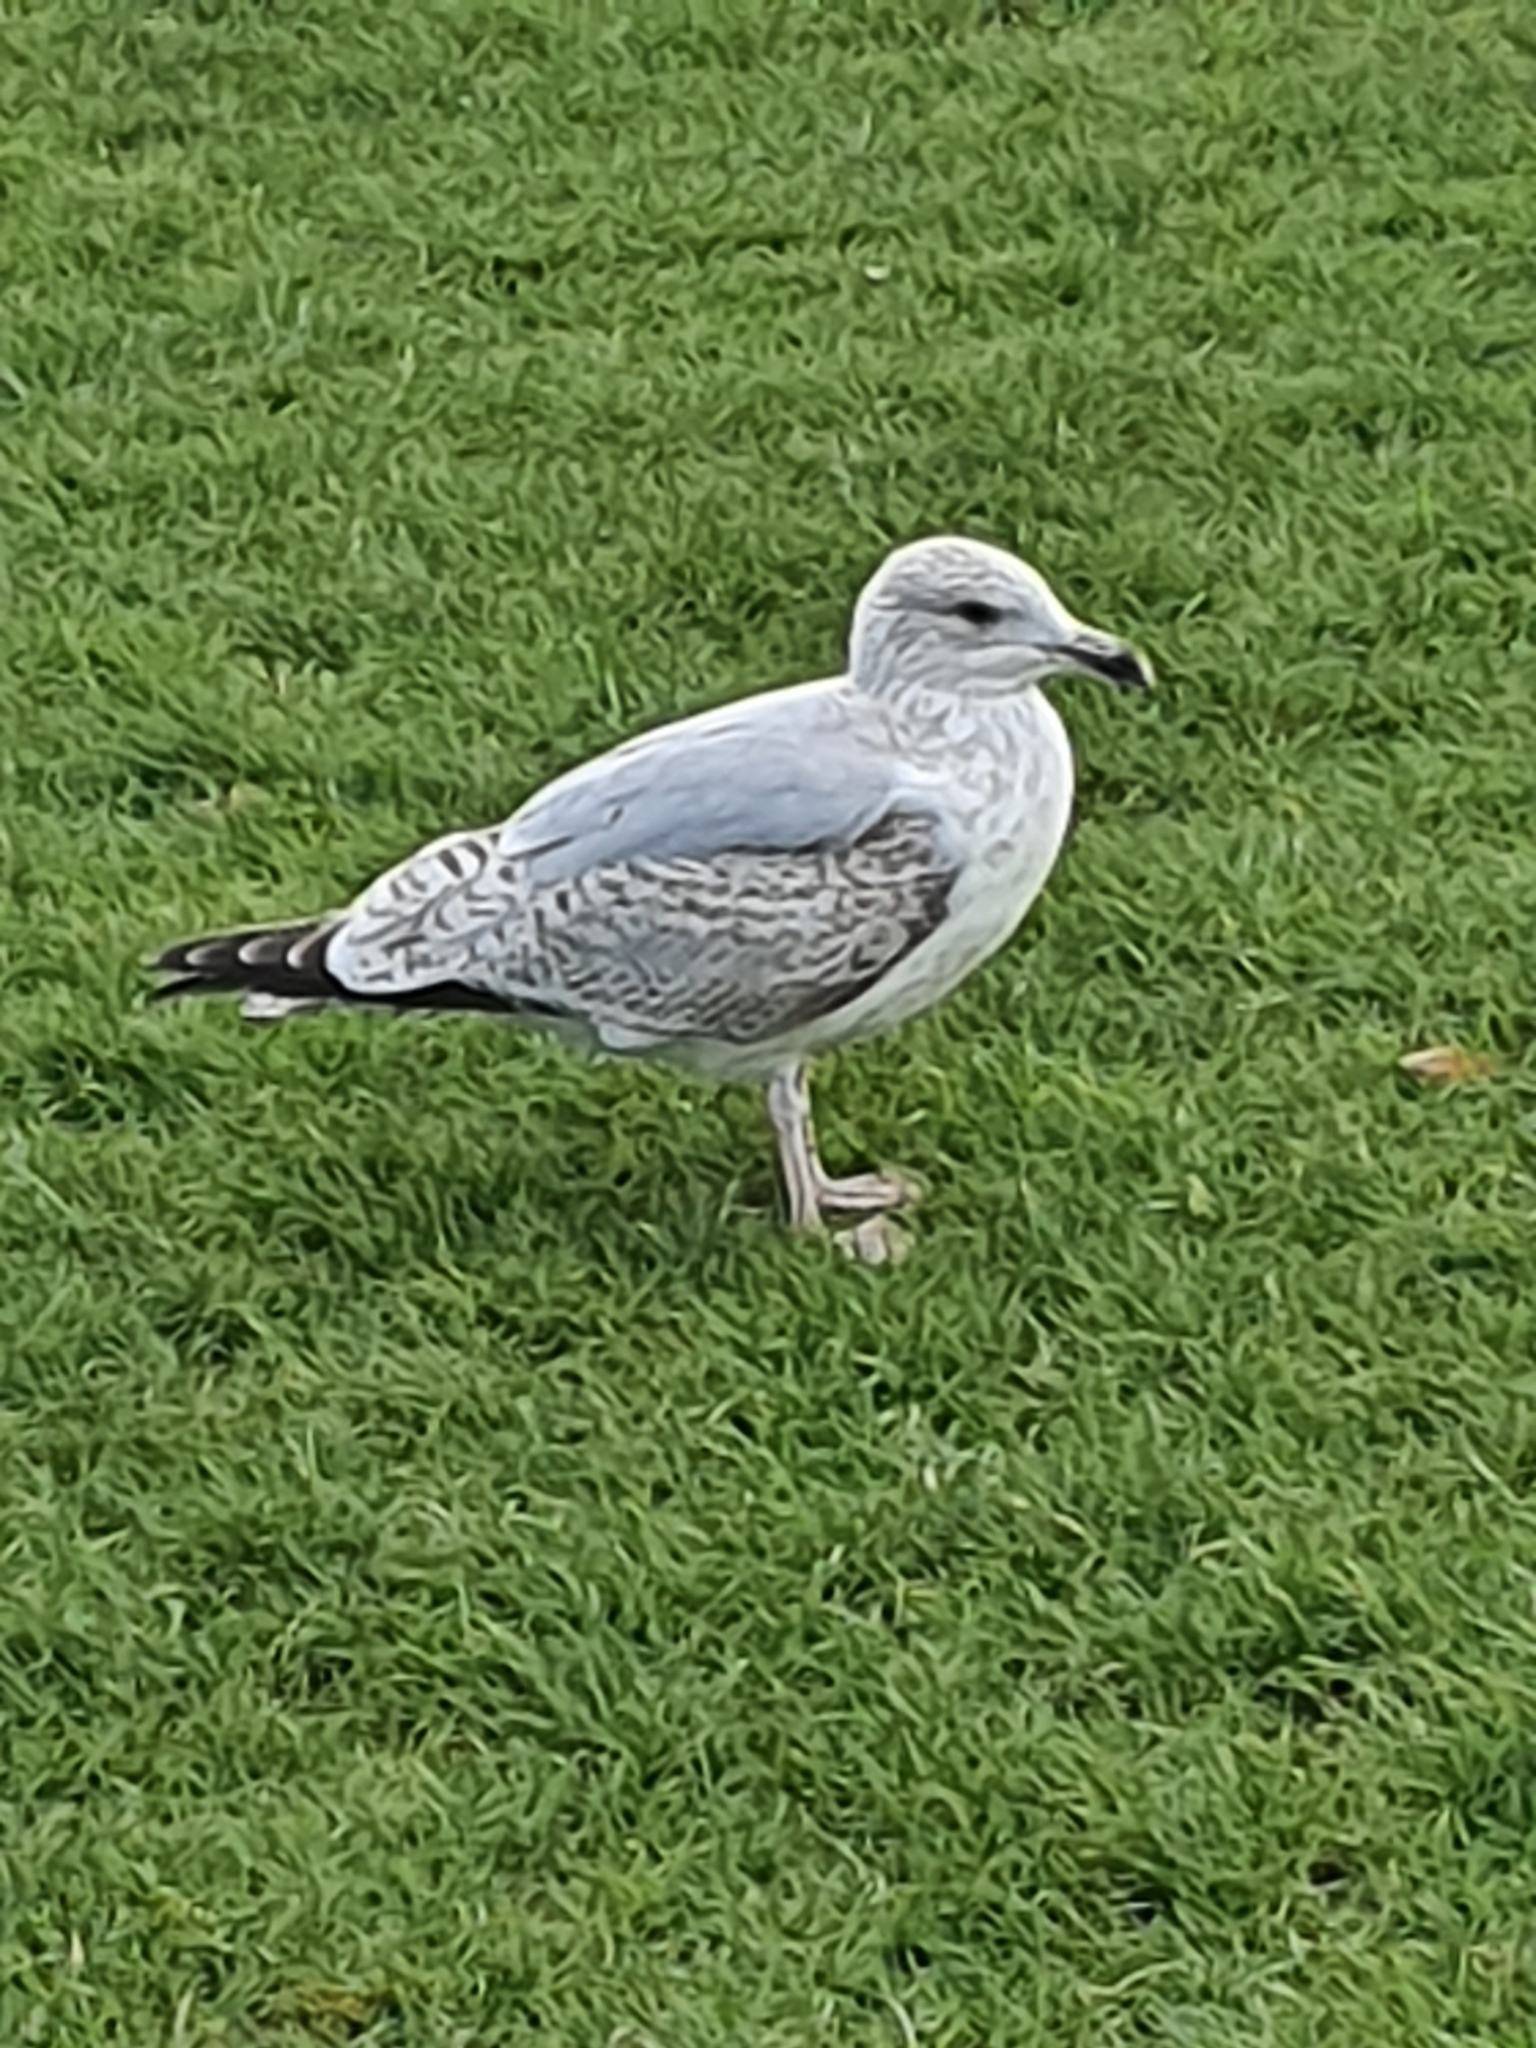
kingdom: Animalia
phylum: Chordata
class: Aves
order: Charadriiformes
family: Laridae
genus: Larus
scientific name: Larus argentatus
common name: Herring gull
